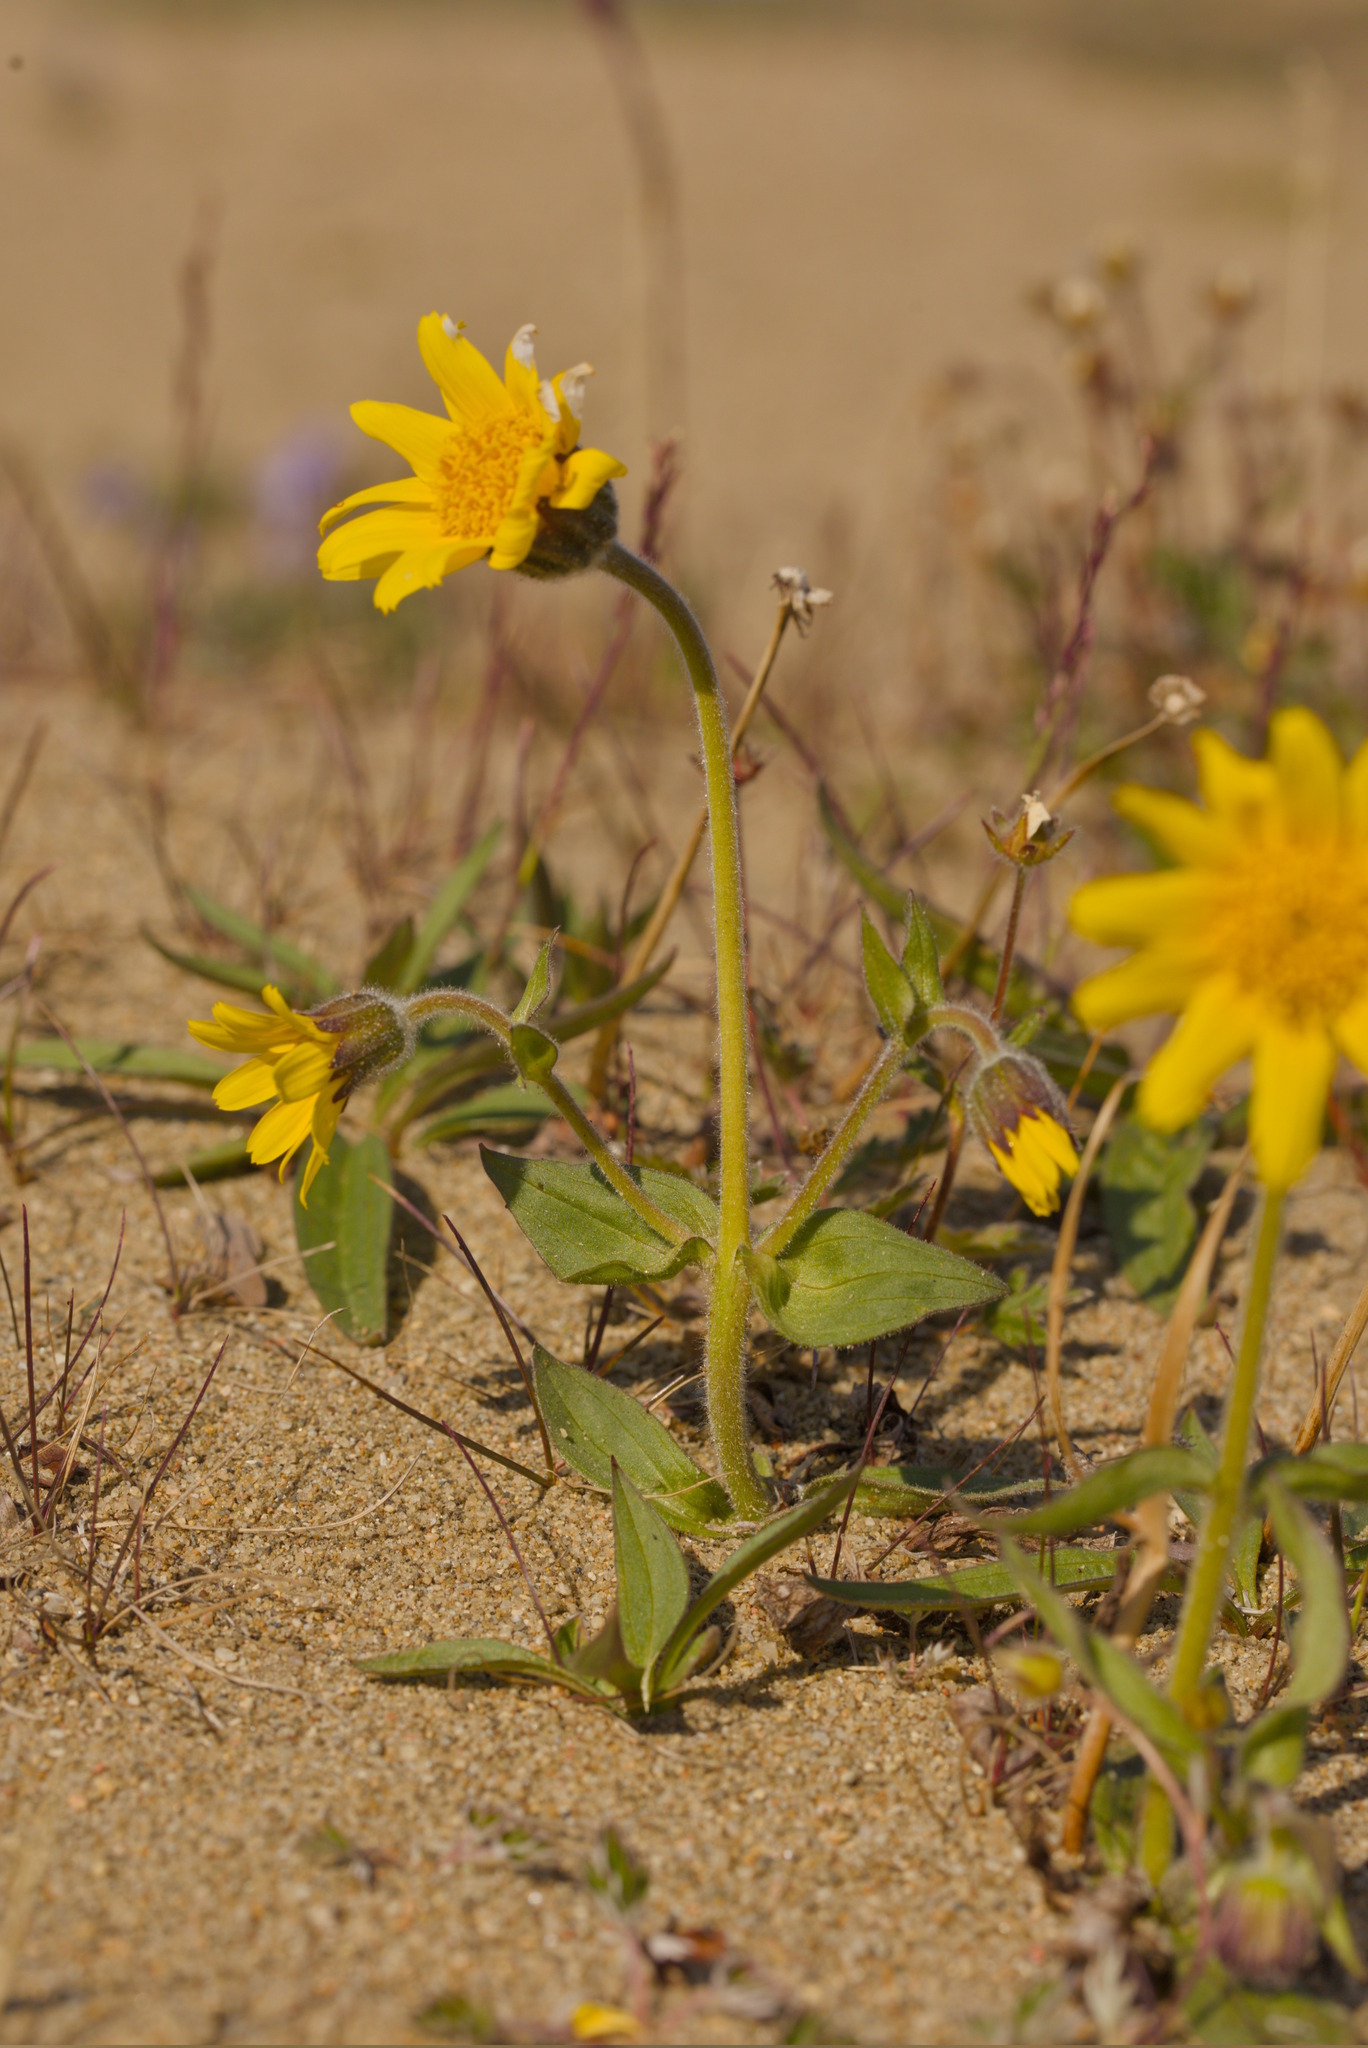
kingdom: Plantae
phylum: Tracheophyta
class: Magnoliopsida
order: Asterales
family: Asteraceae
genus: Arnica
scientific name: Arnica angustifolia
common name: Arctic arnica
